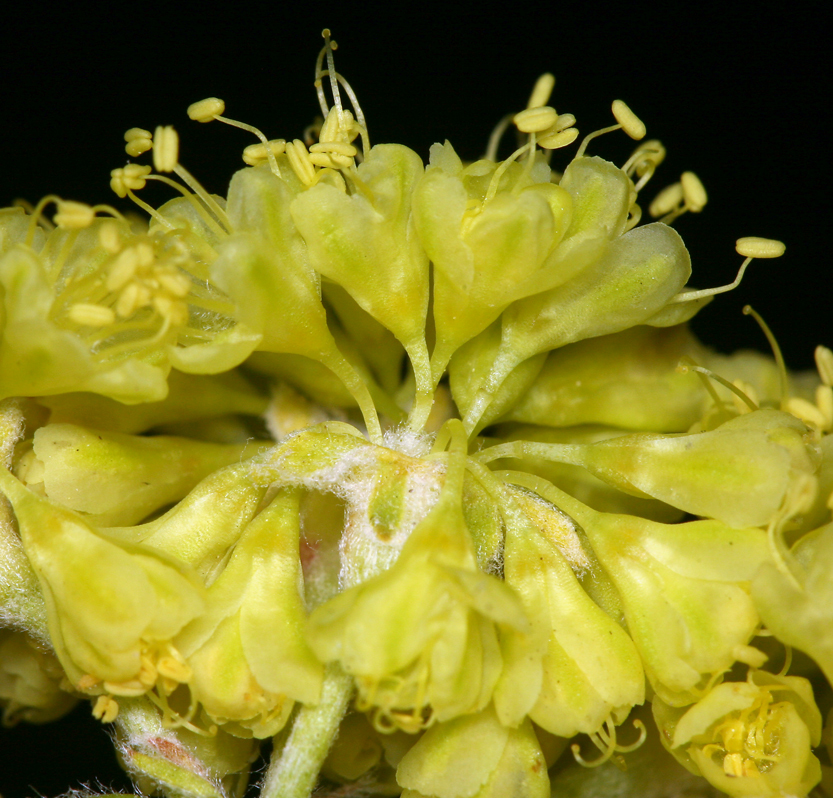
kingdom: Plantae
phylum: Tracheophyta
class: Magnoliopsida
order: Caryophyllales
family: Polygonaceae
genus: Eriogonum
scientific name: Eriogonum umbellatum
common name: Sulfur-buckwheat
